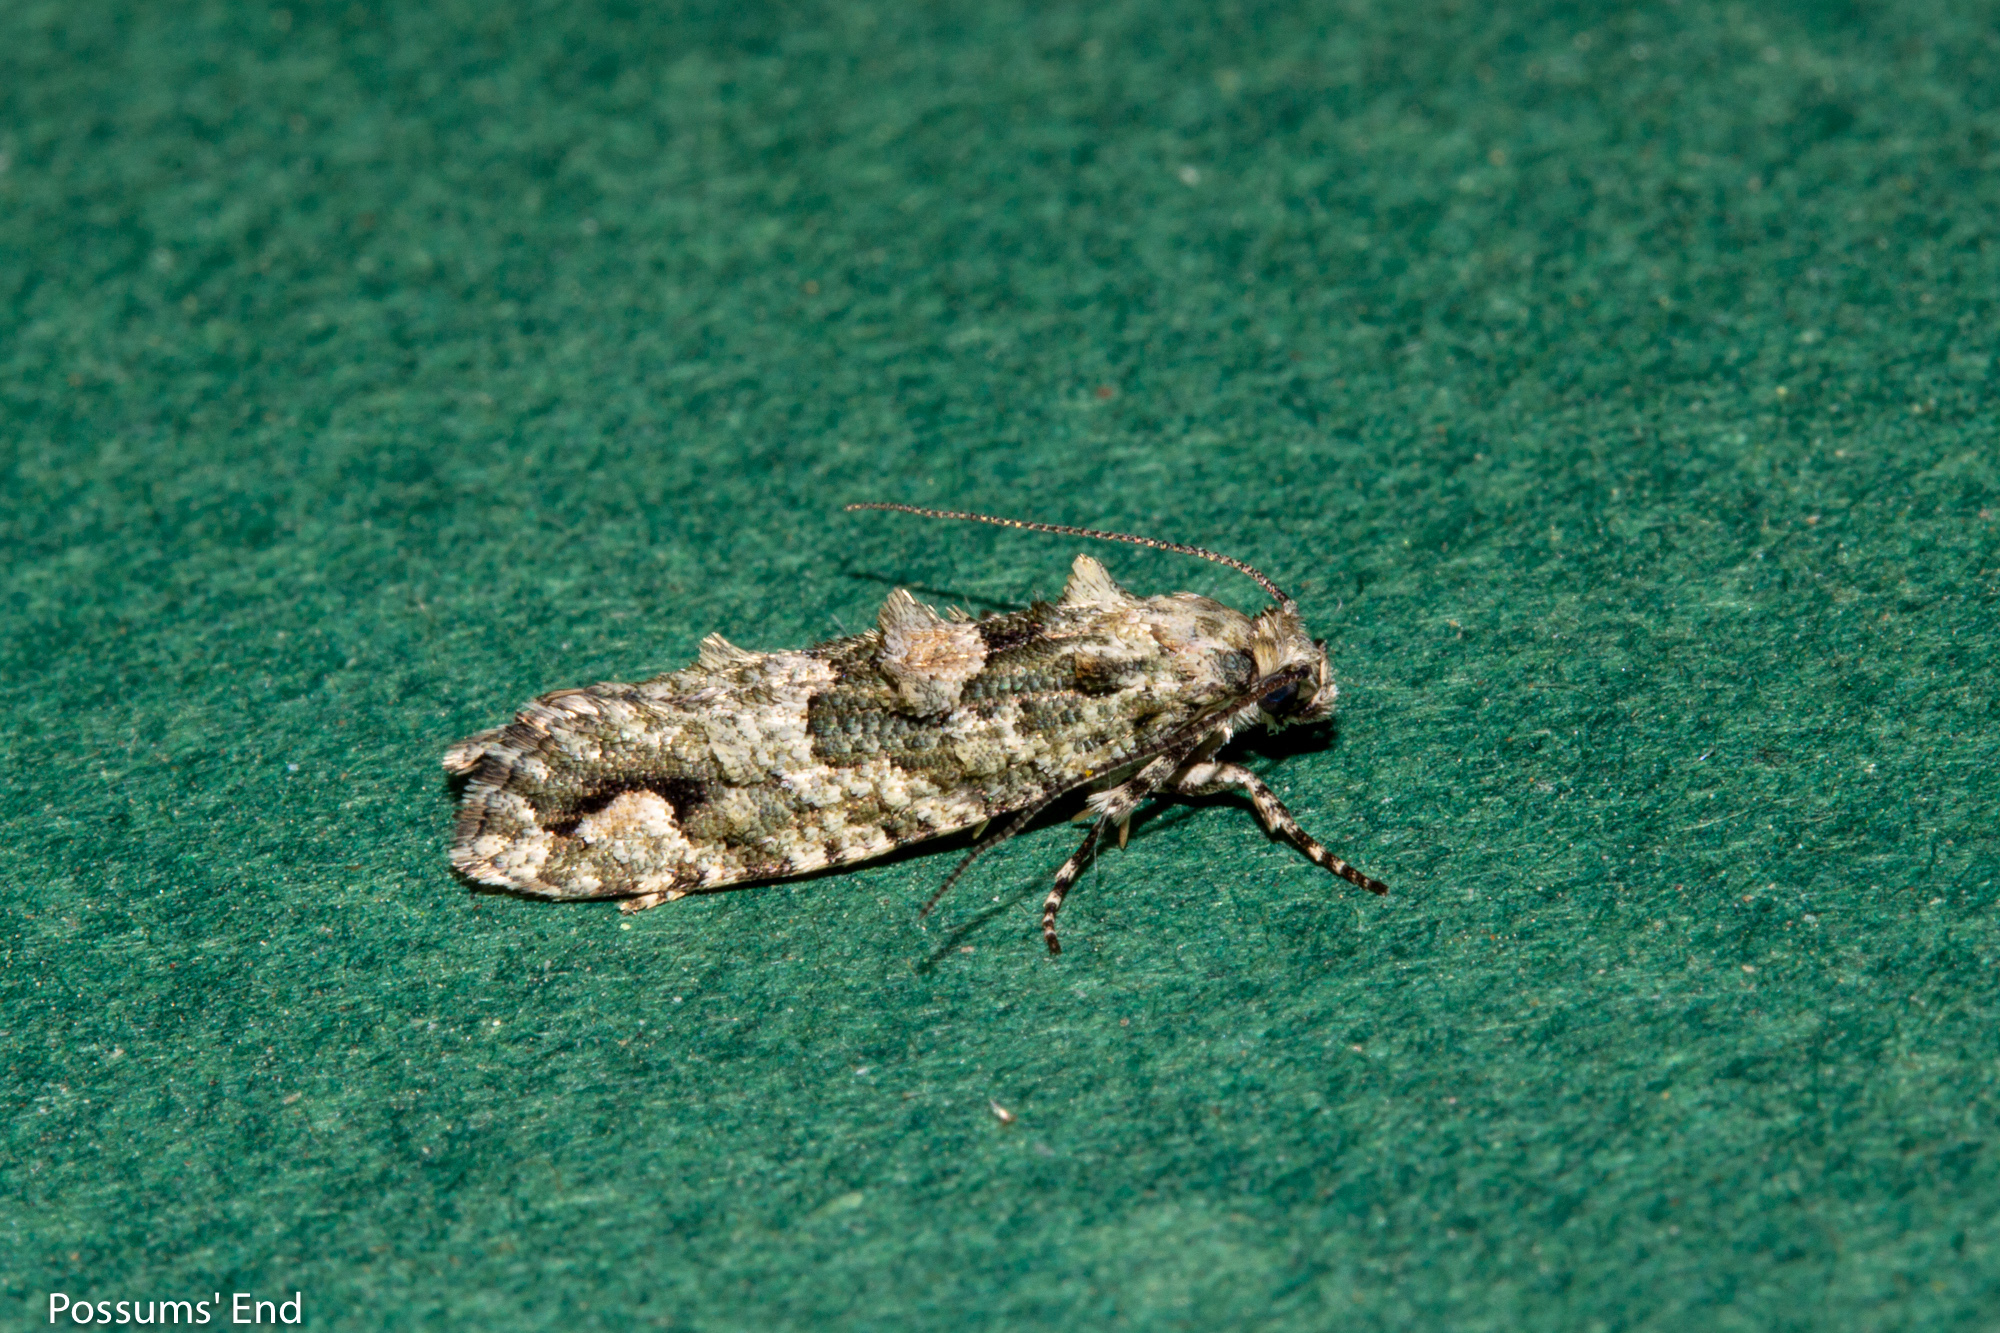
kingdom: Animalia
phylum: Arthropoda
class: Insecta
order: Lepidoptera
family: Tineidae
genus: Lysiphragma
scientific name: Lysiphragma howesii
